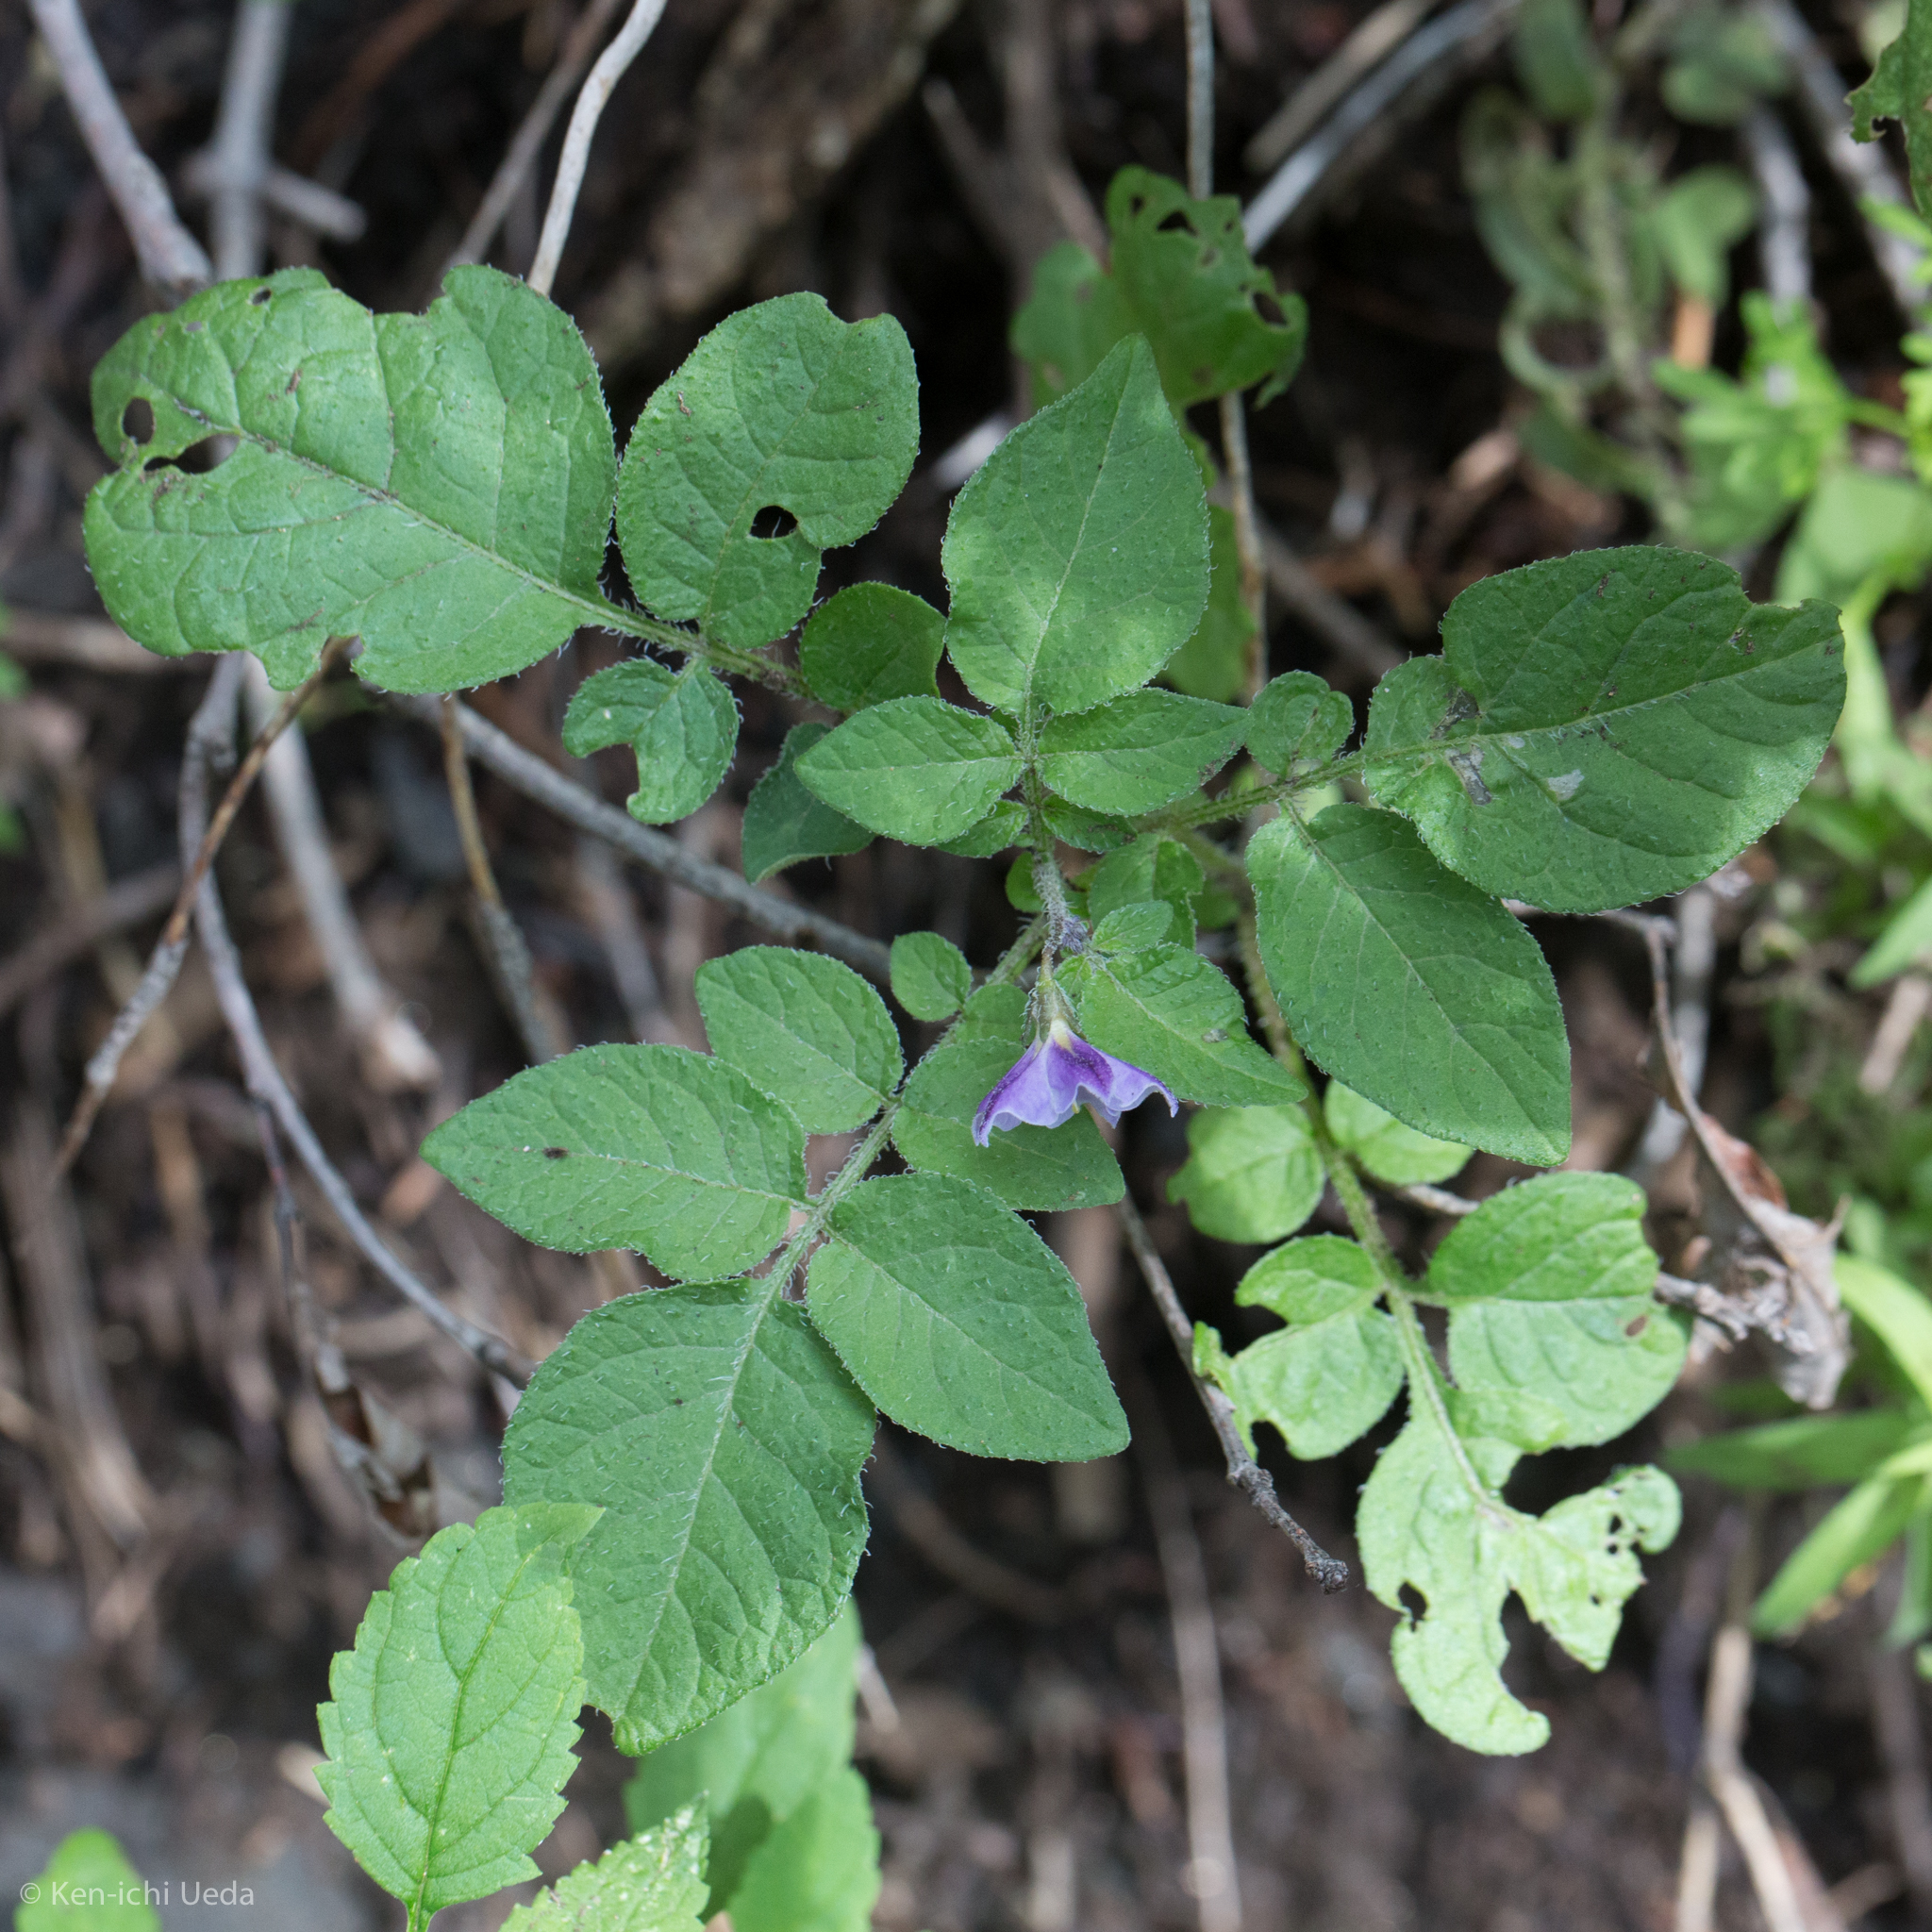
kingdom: Plantae
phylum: Tracheophyta
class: Magnoliopsida
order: Solanales
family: Solanaceae
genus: Solanum
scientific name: Solanum stoloniferum
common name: Fendler's nighshade
